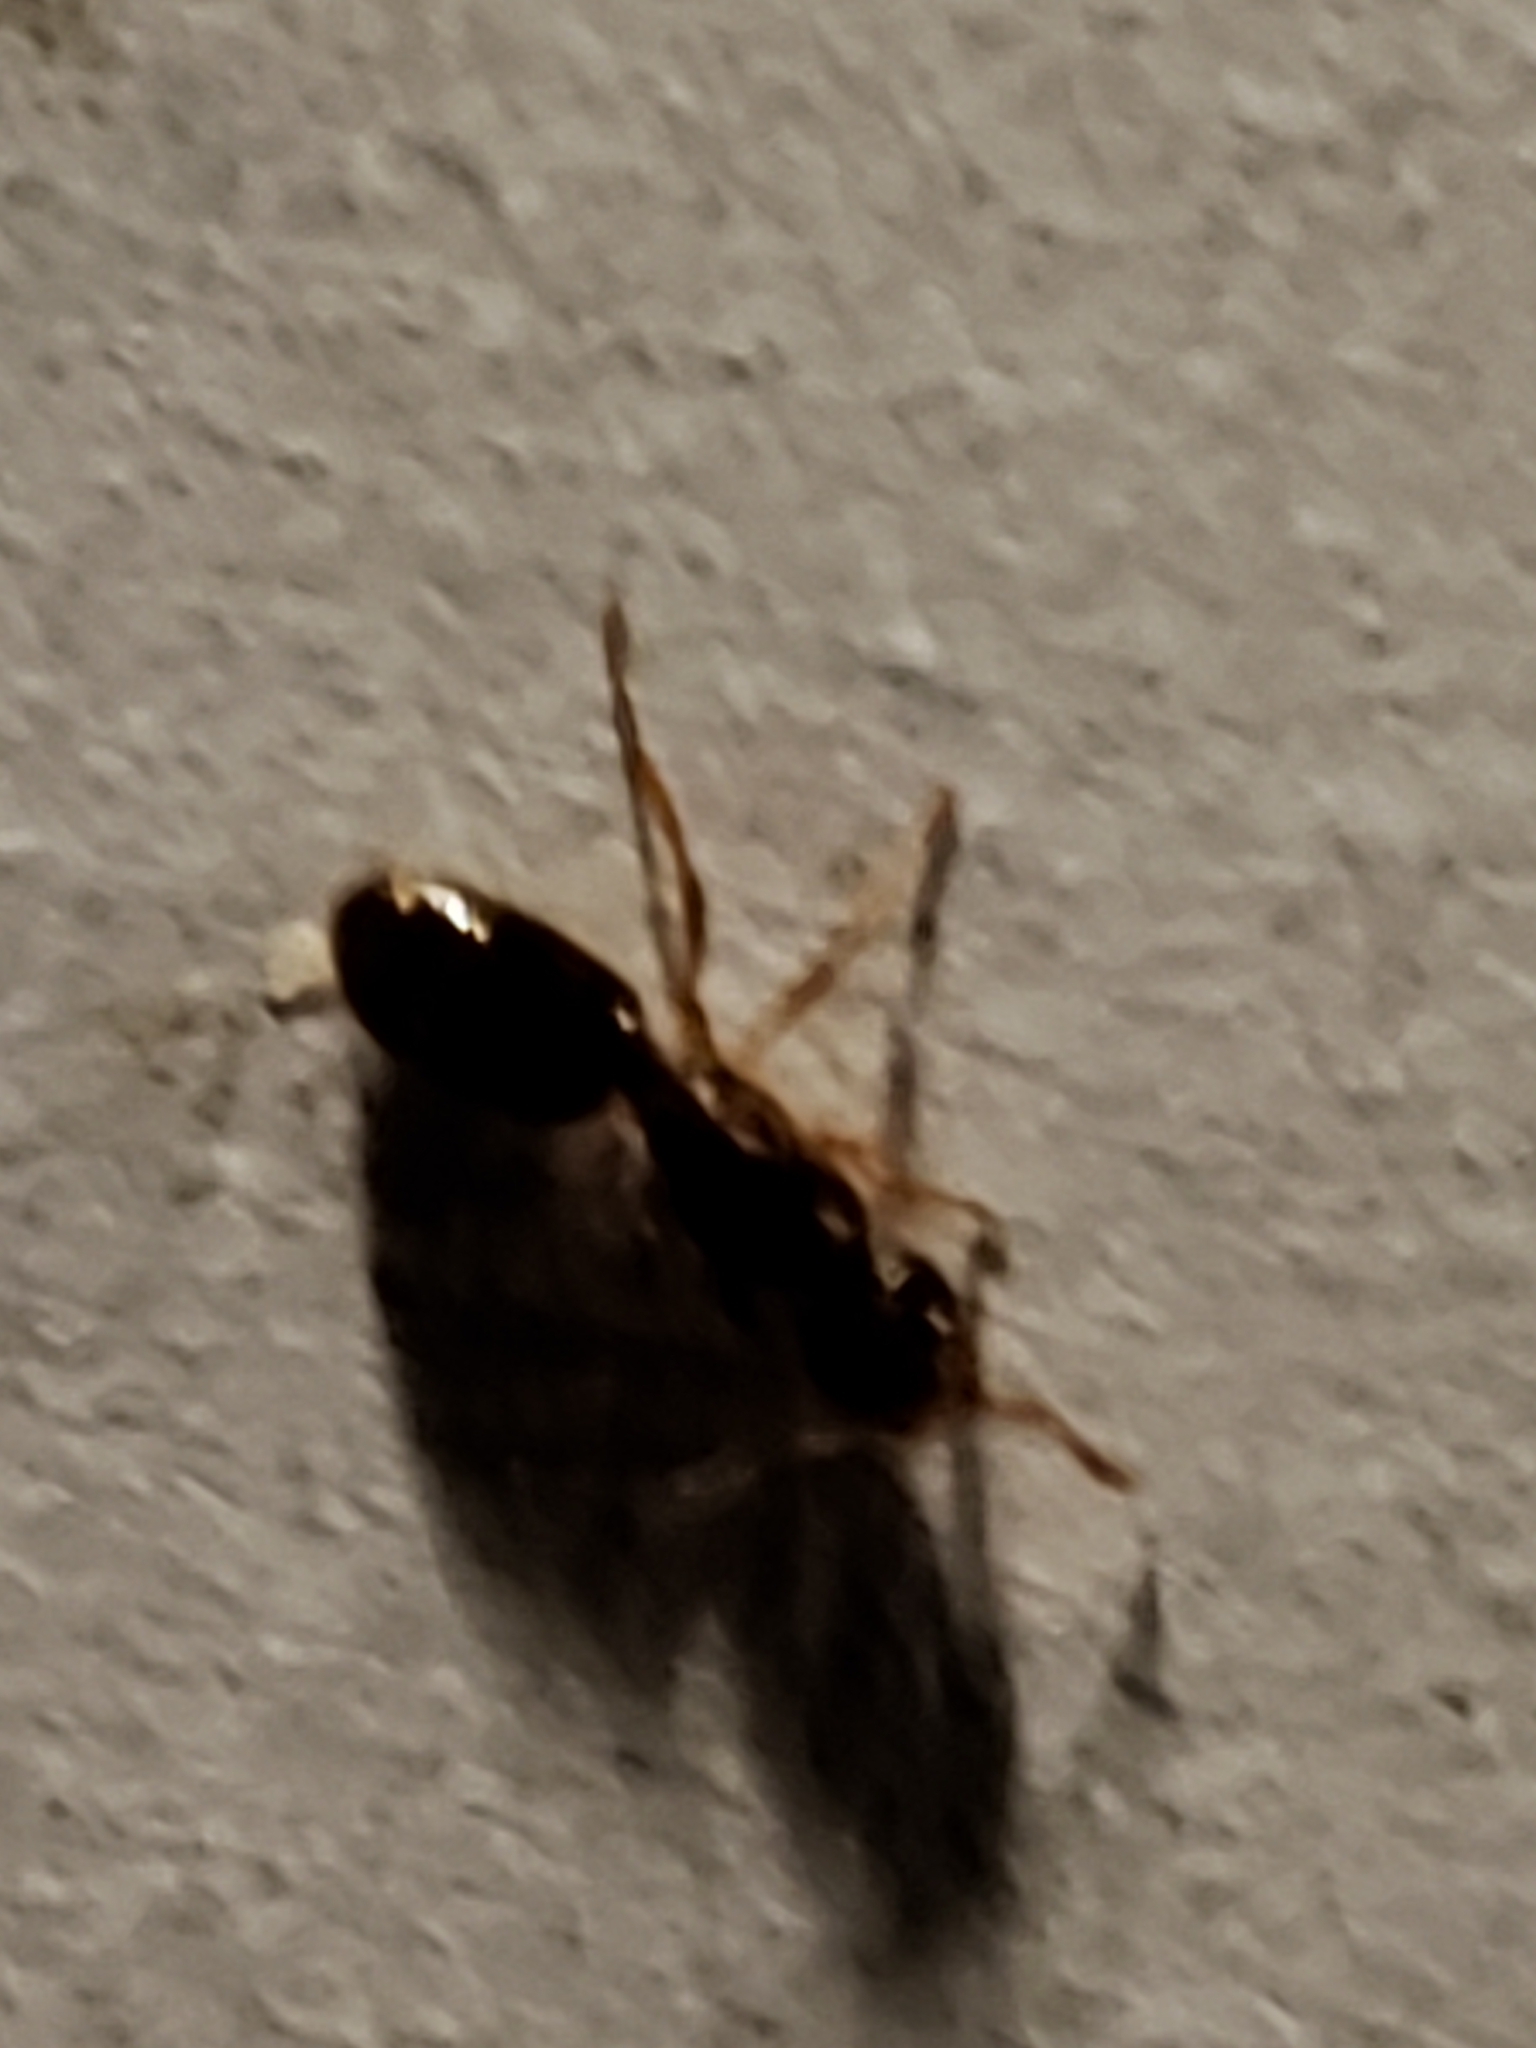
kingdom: Animalia
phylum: Arthropoda
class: Insecta
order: Hymenoptera
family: Formicidae
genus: Lasius
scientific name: Lasius claviger
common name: Common citronella ant
